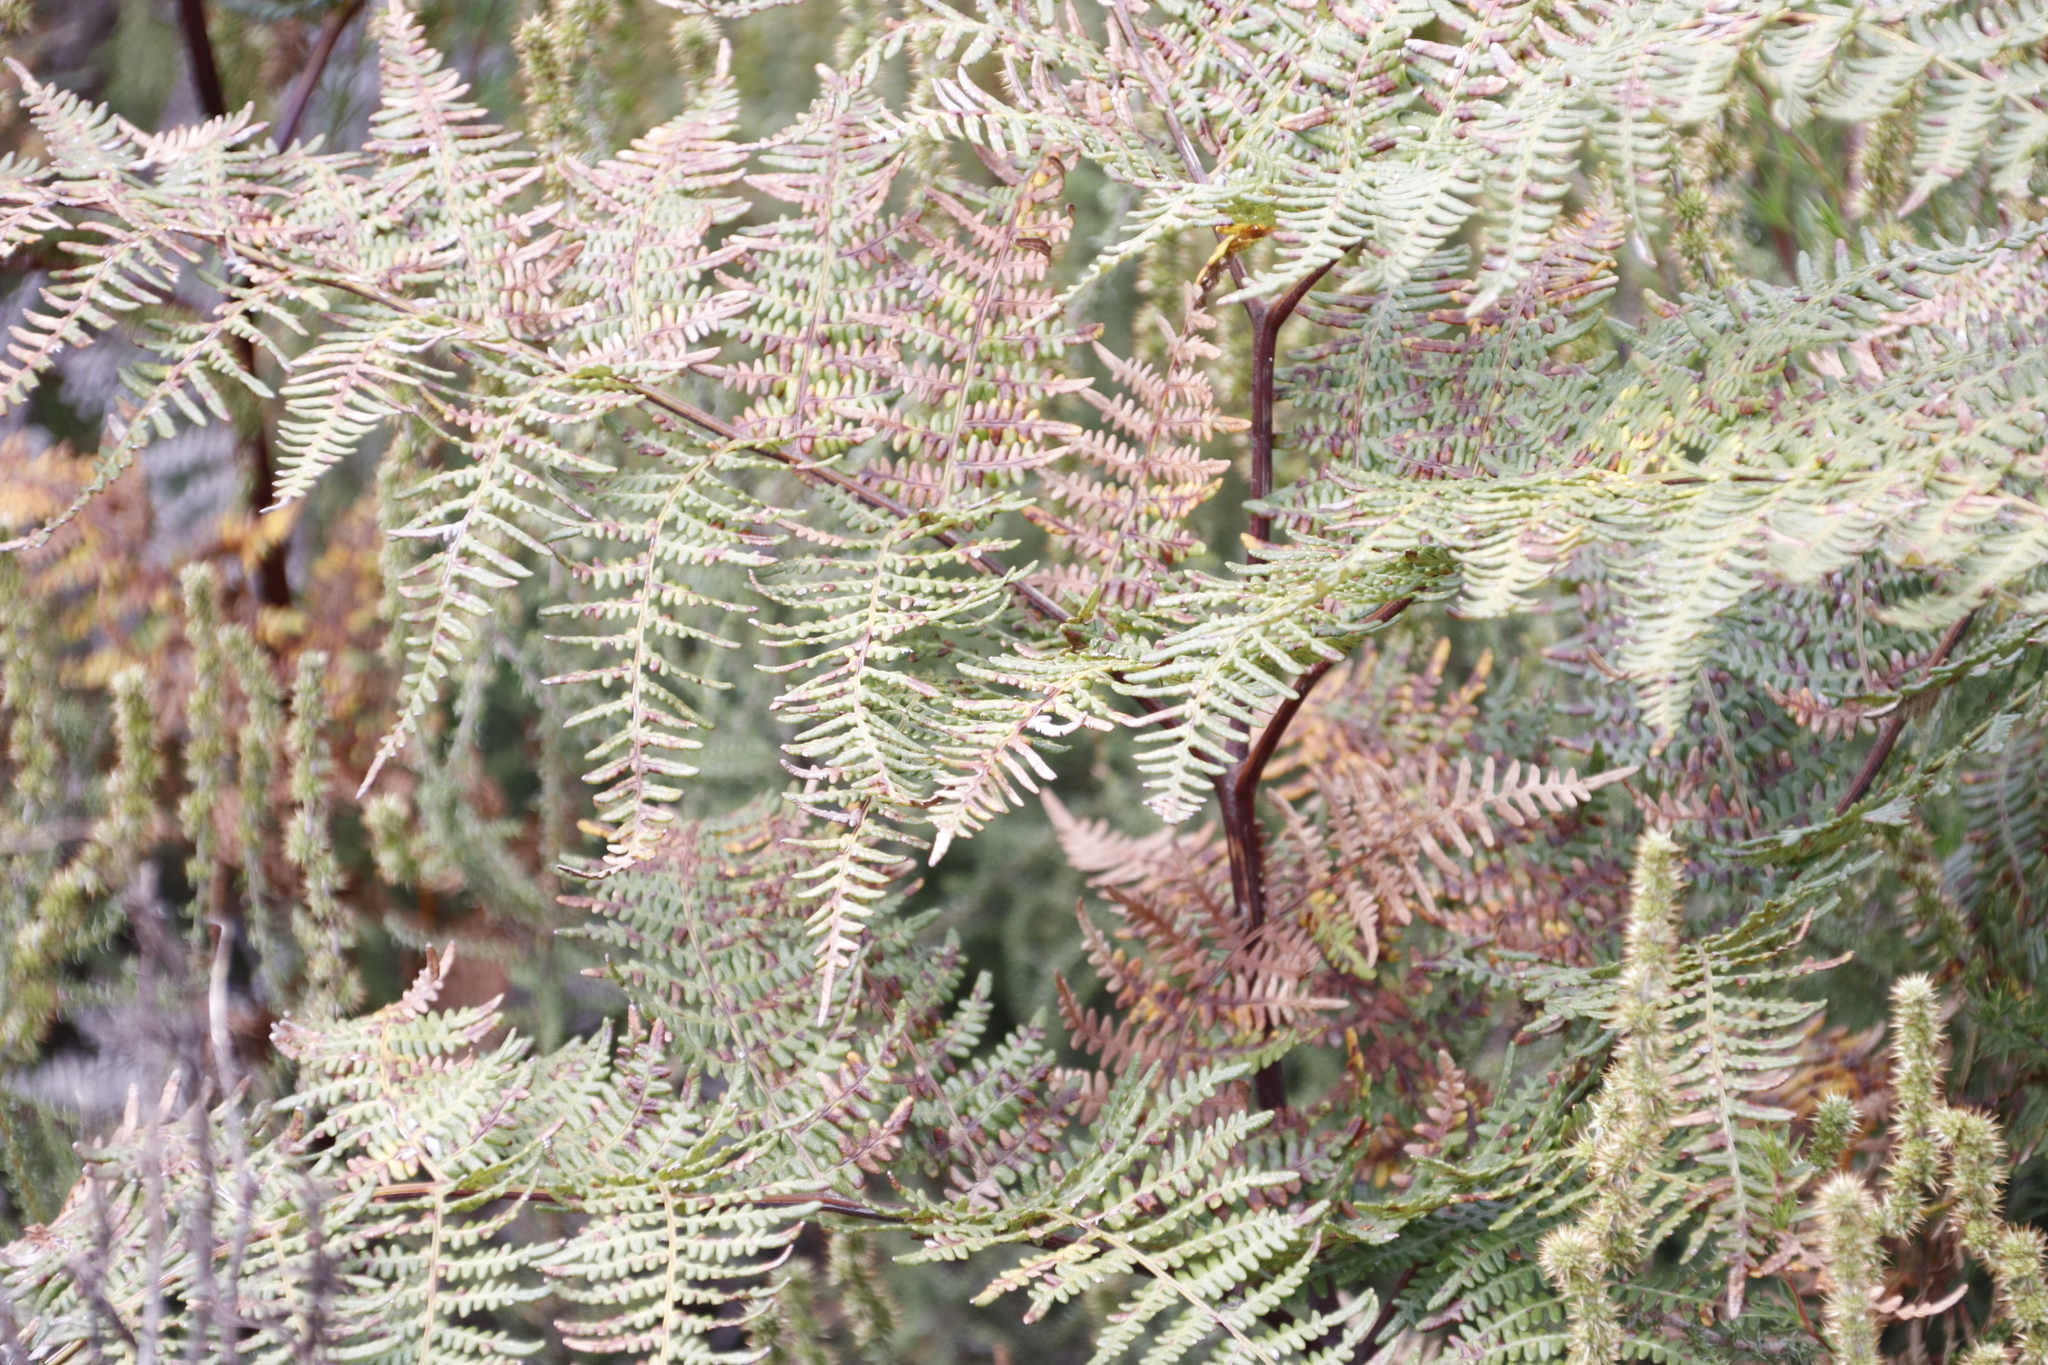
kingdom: Plantae
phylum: Tracheophyta
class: Polypodiopsida
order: Polypodiales
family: Dennstaedtiaceae
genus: Pteridium
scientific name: Pteridium aquilinum
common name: Bracken
